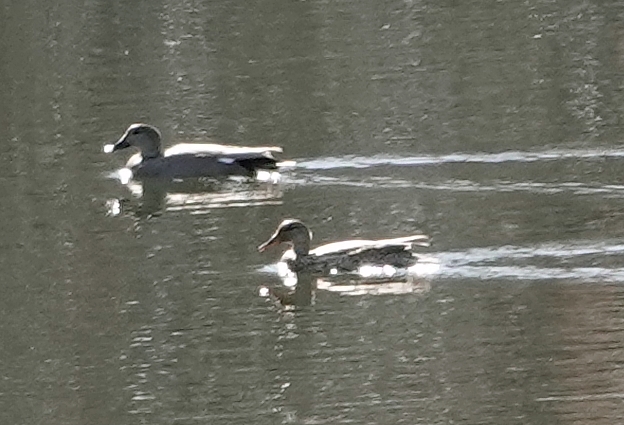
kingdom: Animalia
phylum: Chordata
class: Aves
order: Anseriformes
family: Anatidae
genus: Mareca
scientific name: Mareca strepera
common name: Gadwall
